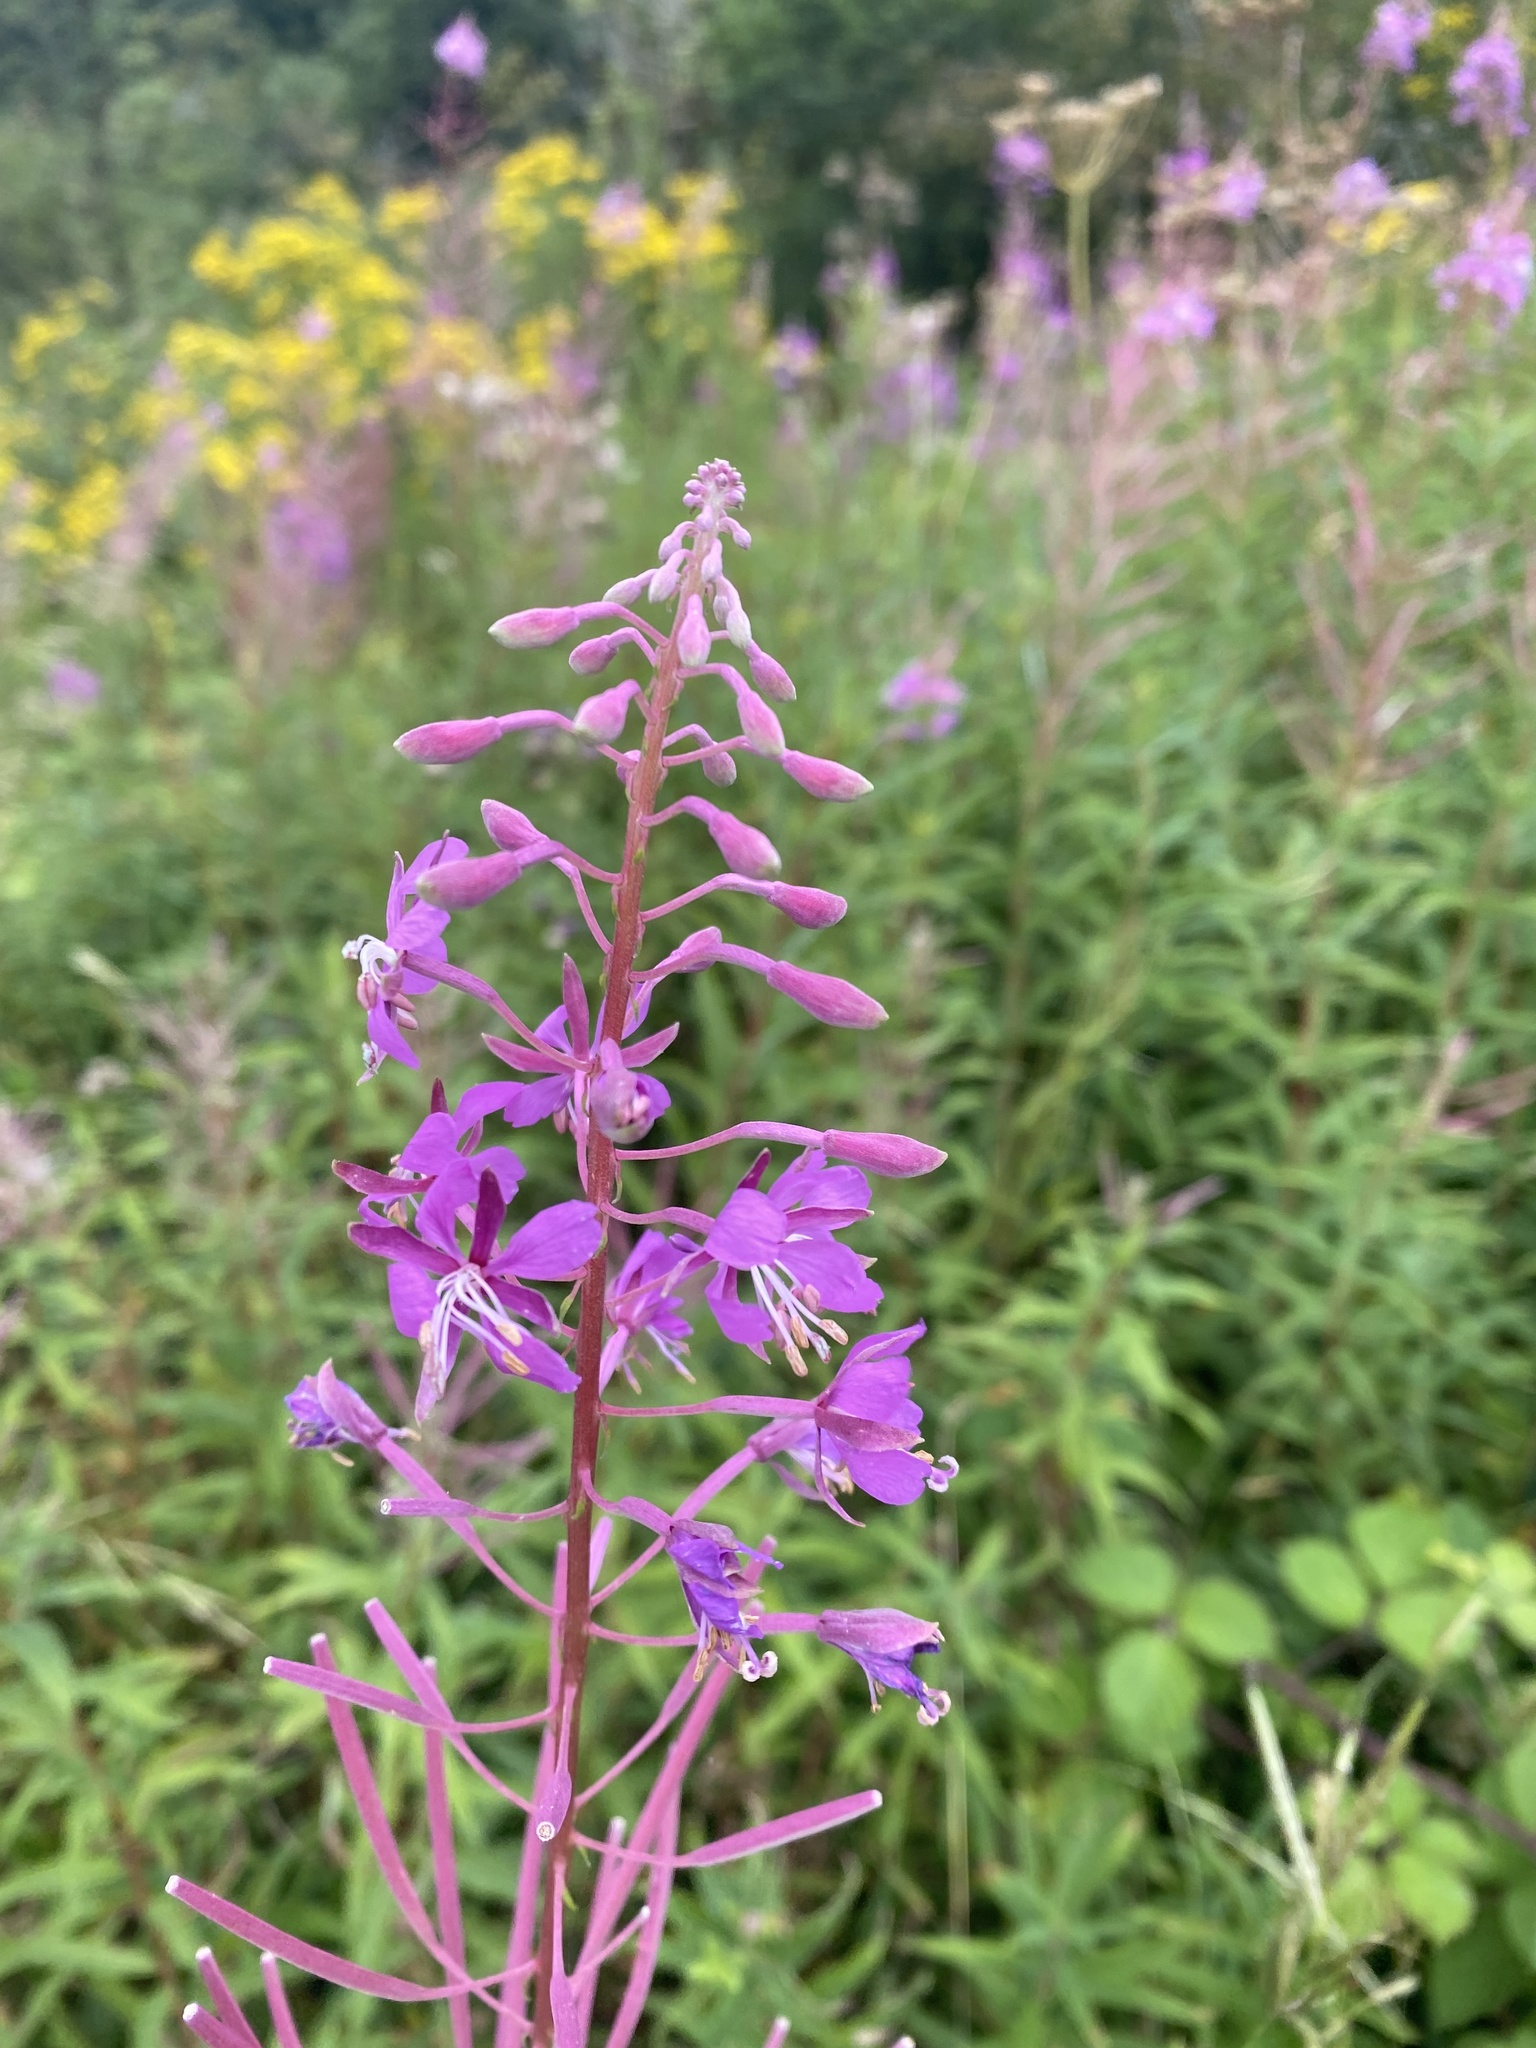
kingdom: Plantae
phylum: Tracheophyta
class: Magnoliopsida
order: Myrtales
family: Onagraceae
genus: Chamaenerion
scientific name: Chamaenerion angustifolium
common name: Fireweed
